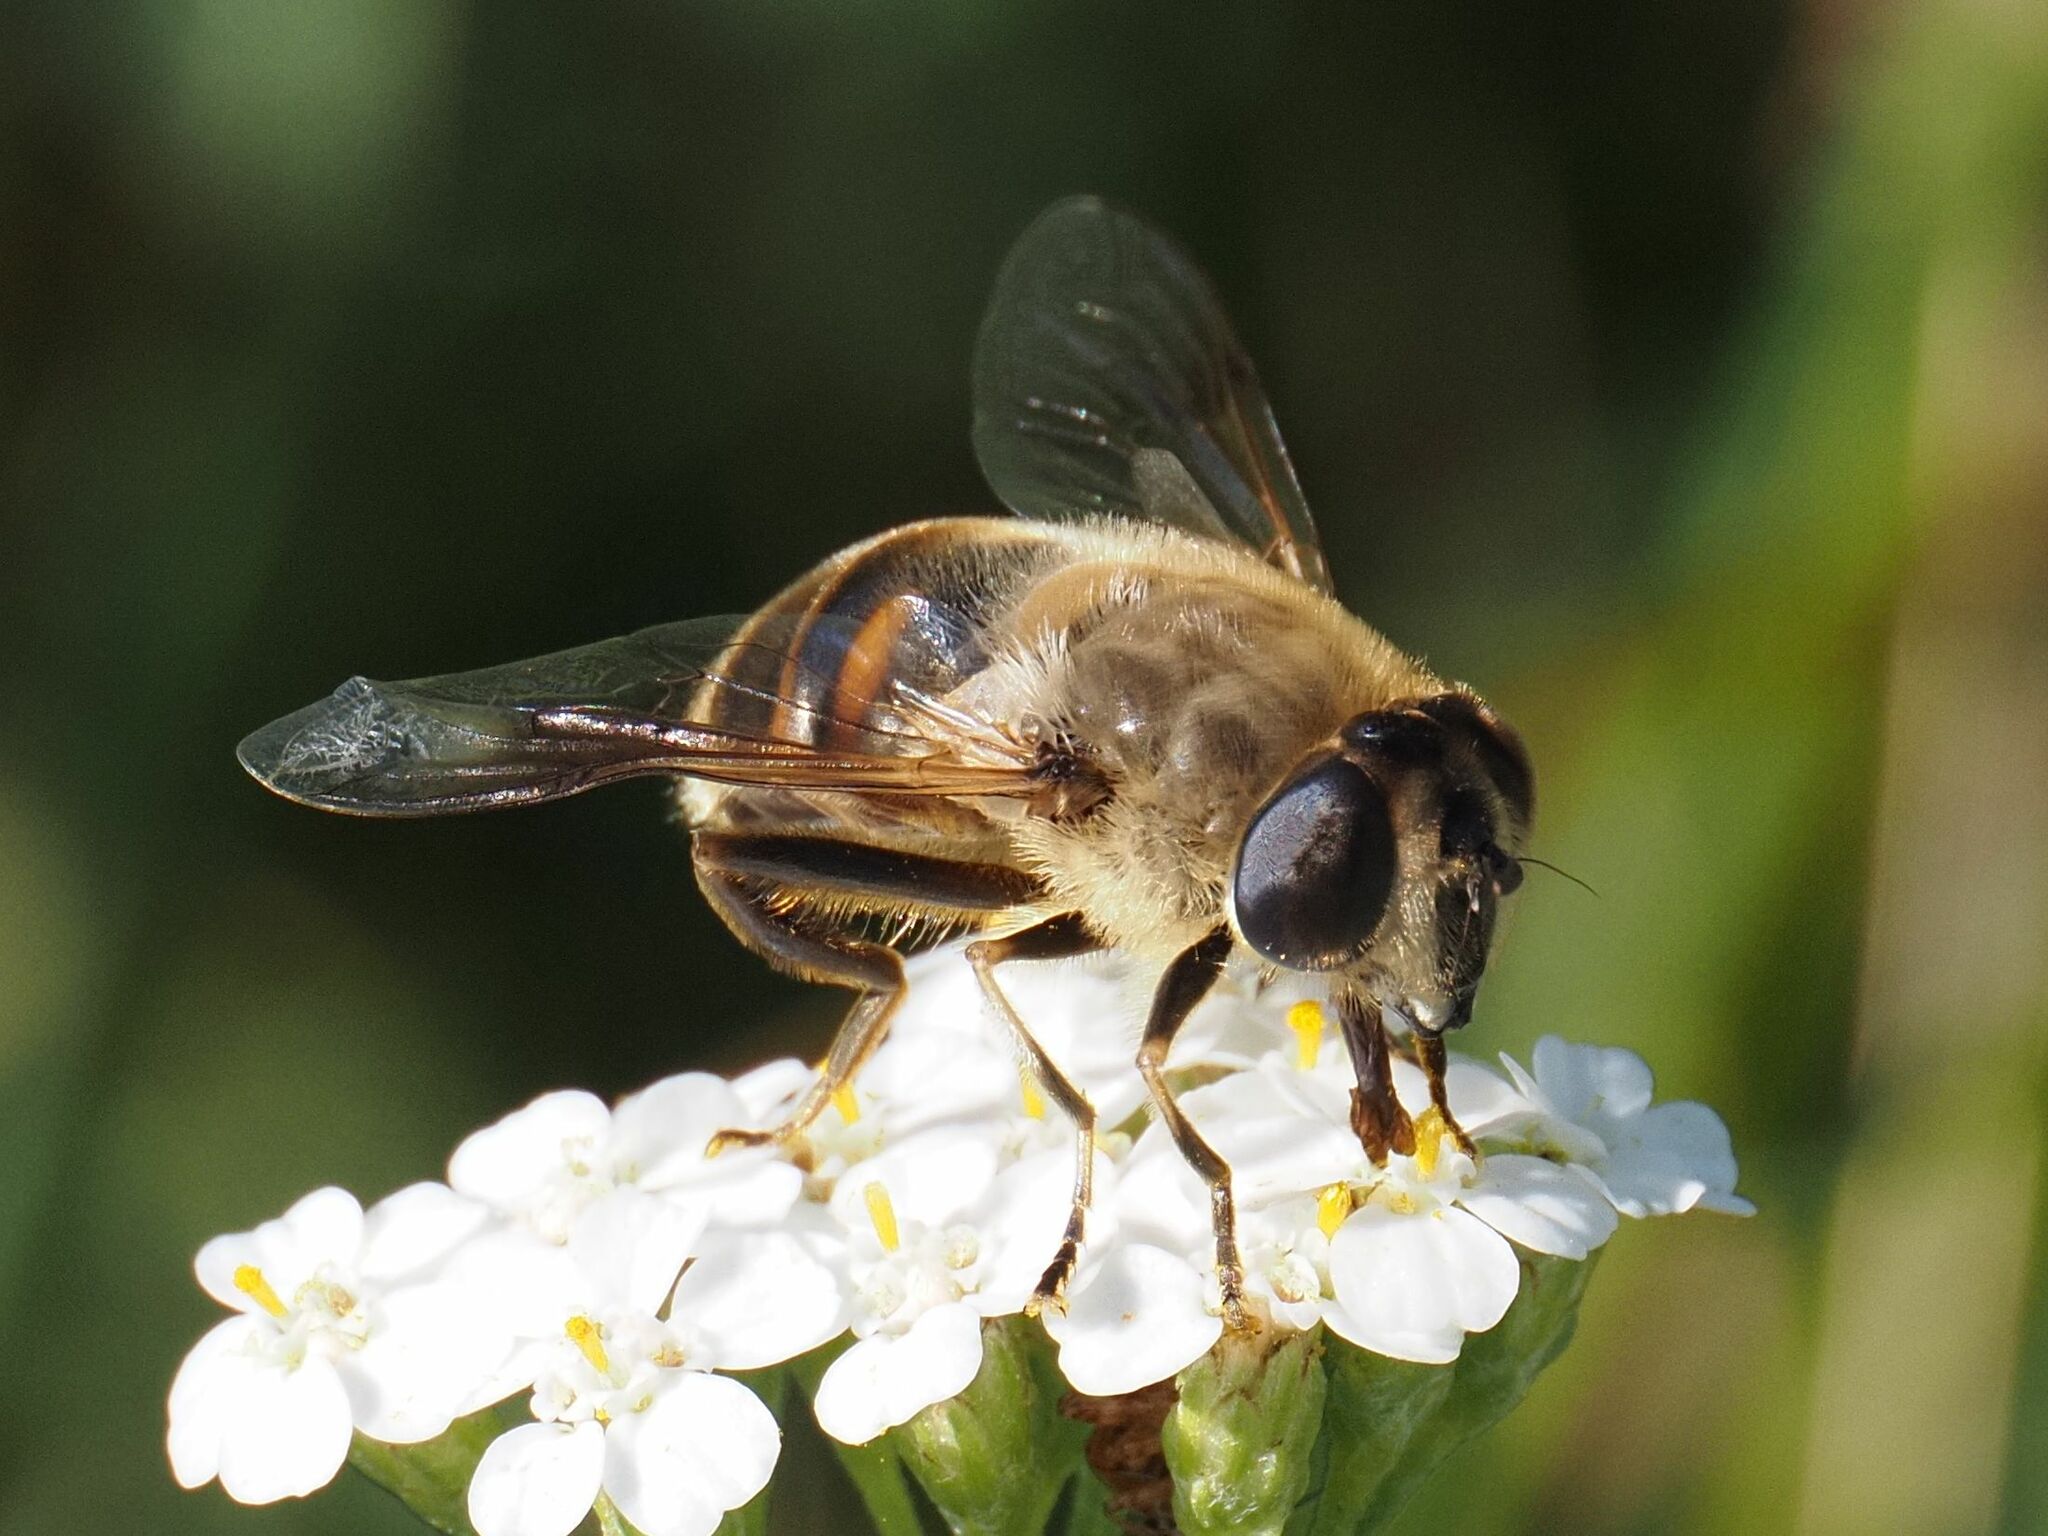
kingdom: Animalia
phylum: Arthropoda
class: Insecta
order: Diptera
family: Syrphidae
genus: Eristalis
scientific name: Eristalis tenax
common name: Drone fly
